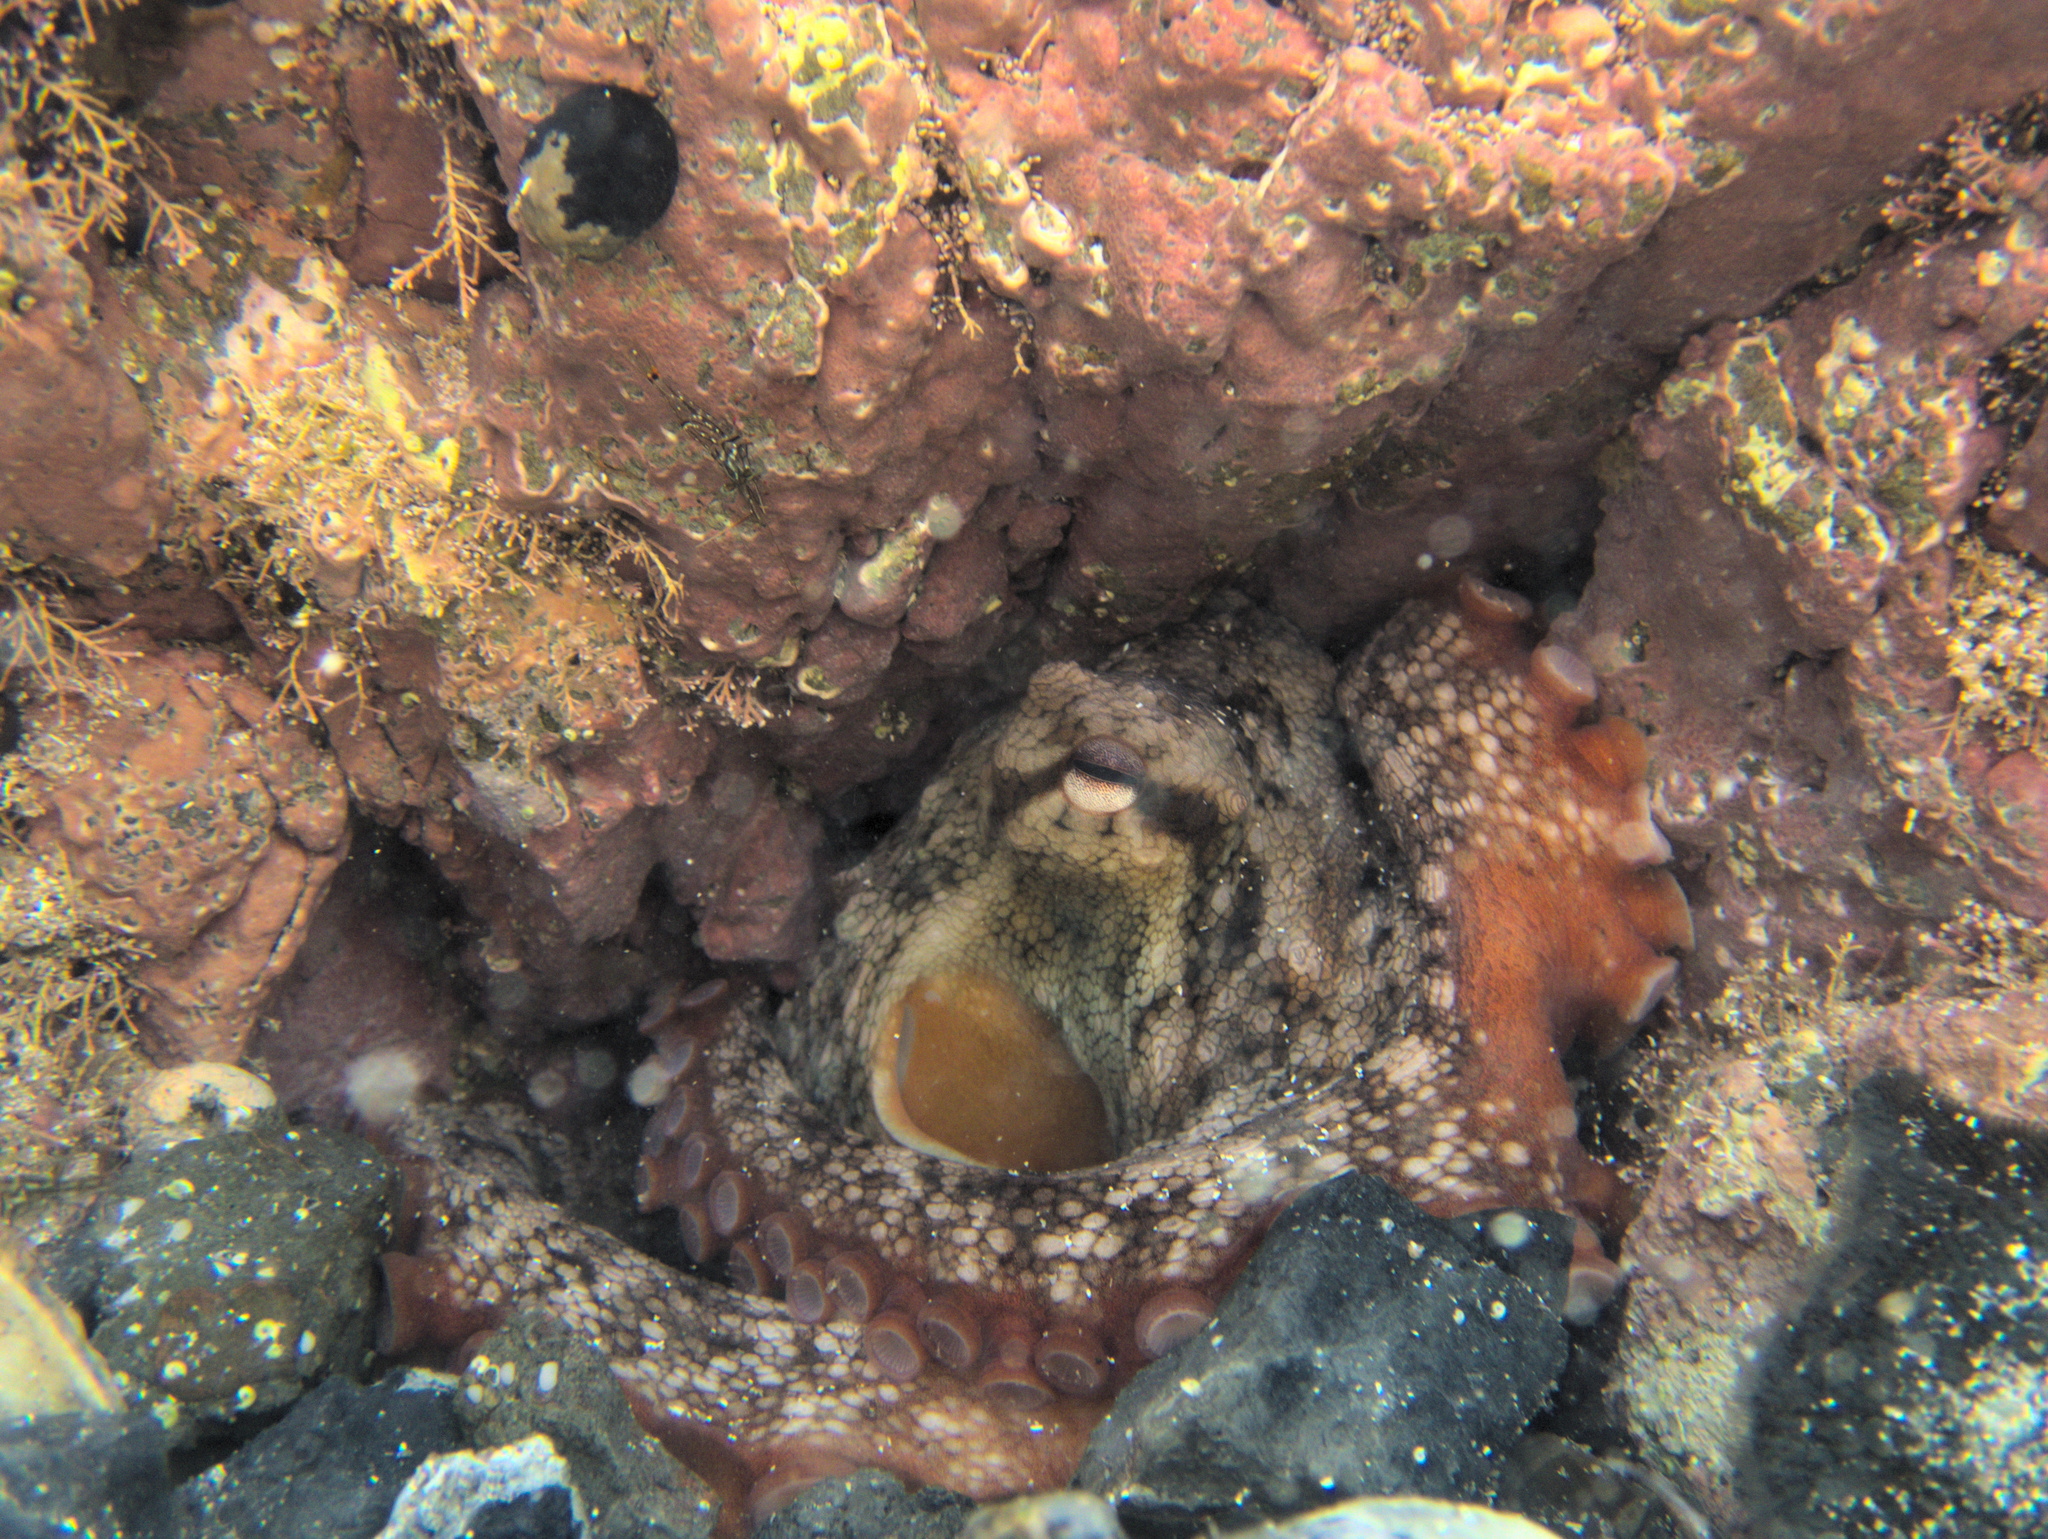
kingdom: Animalia
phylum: Mollusca
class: Cephalopoda
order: Octopoda
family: Octopodidae
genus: Octopus
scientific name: Octopus tetricus
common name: Sydney octopus
